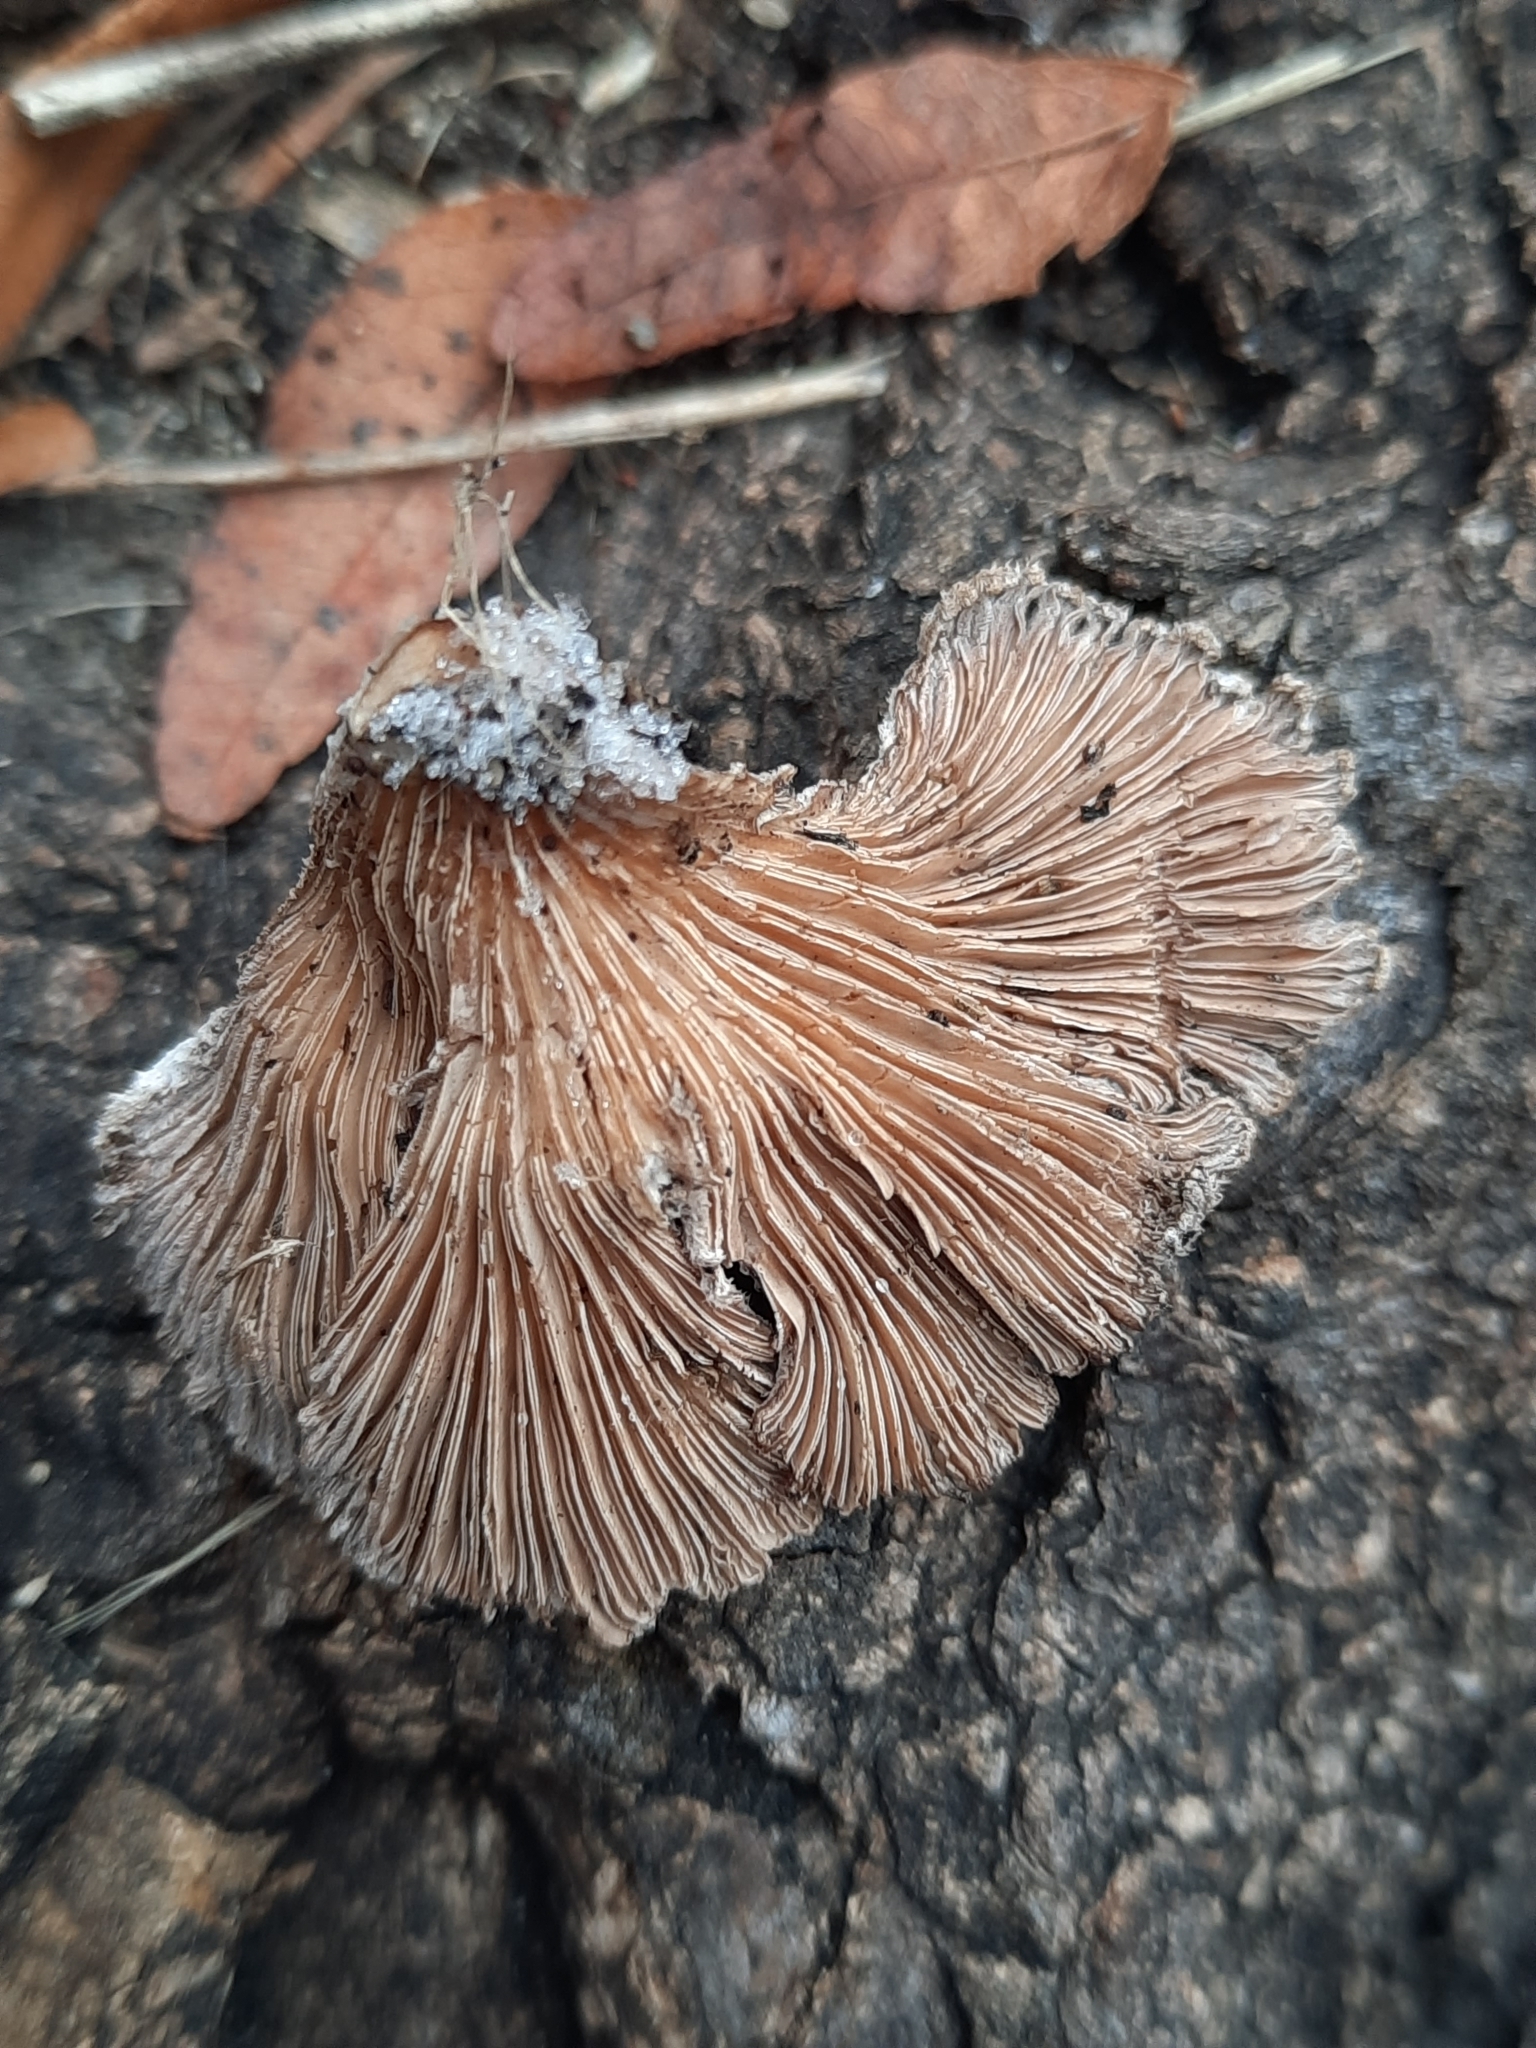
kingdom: Fungi
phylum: Basidiomycota
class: Agaricomycetes
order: Agaricales
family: Schizophyllaceae
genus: Schizophyllum
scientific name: Schizophyllum commune
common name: Common porecrust
